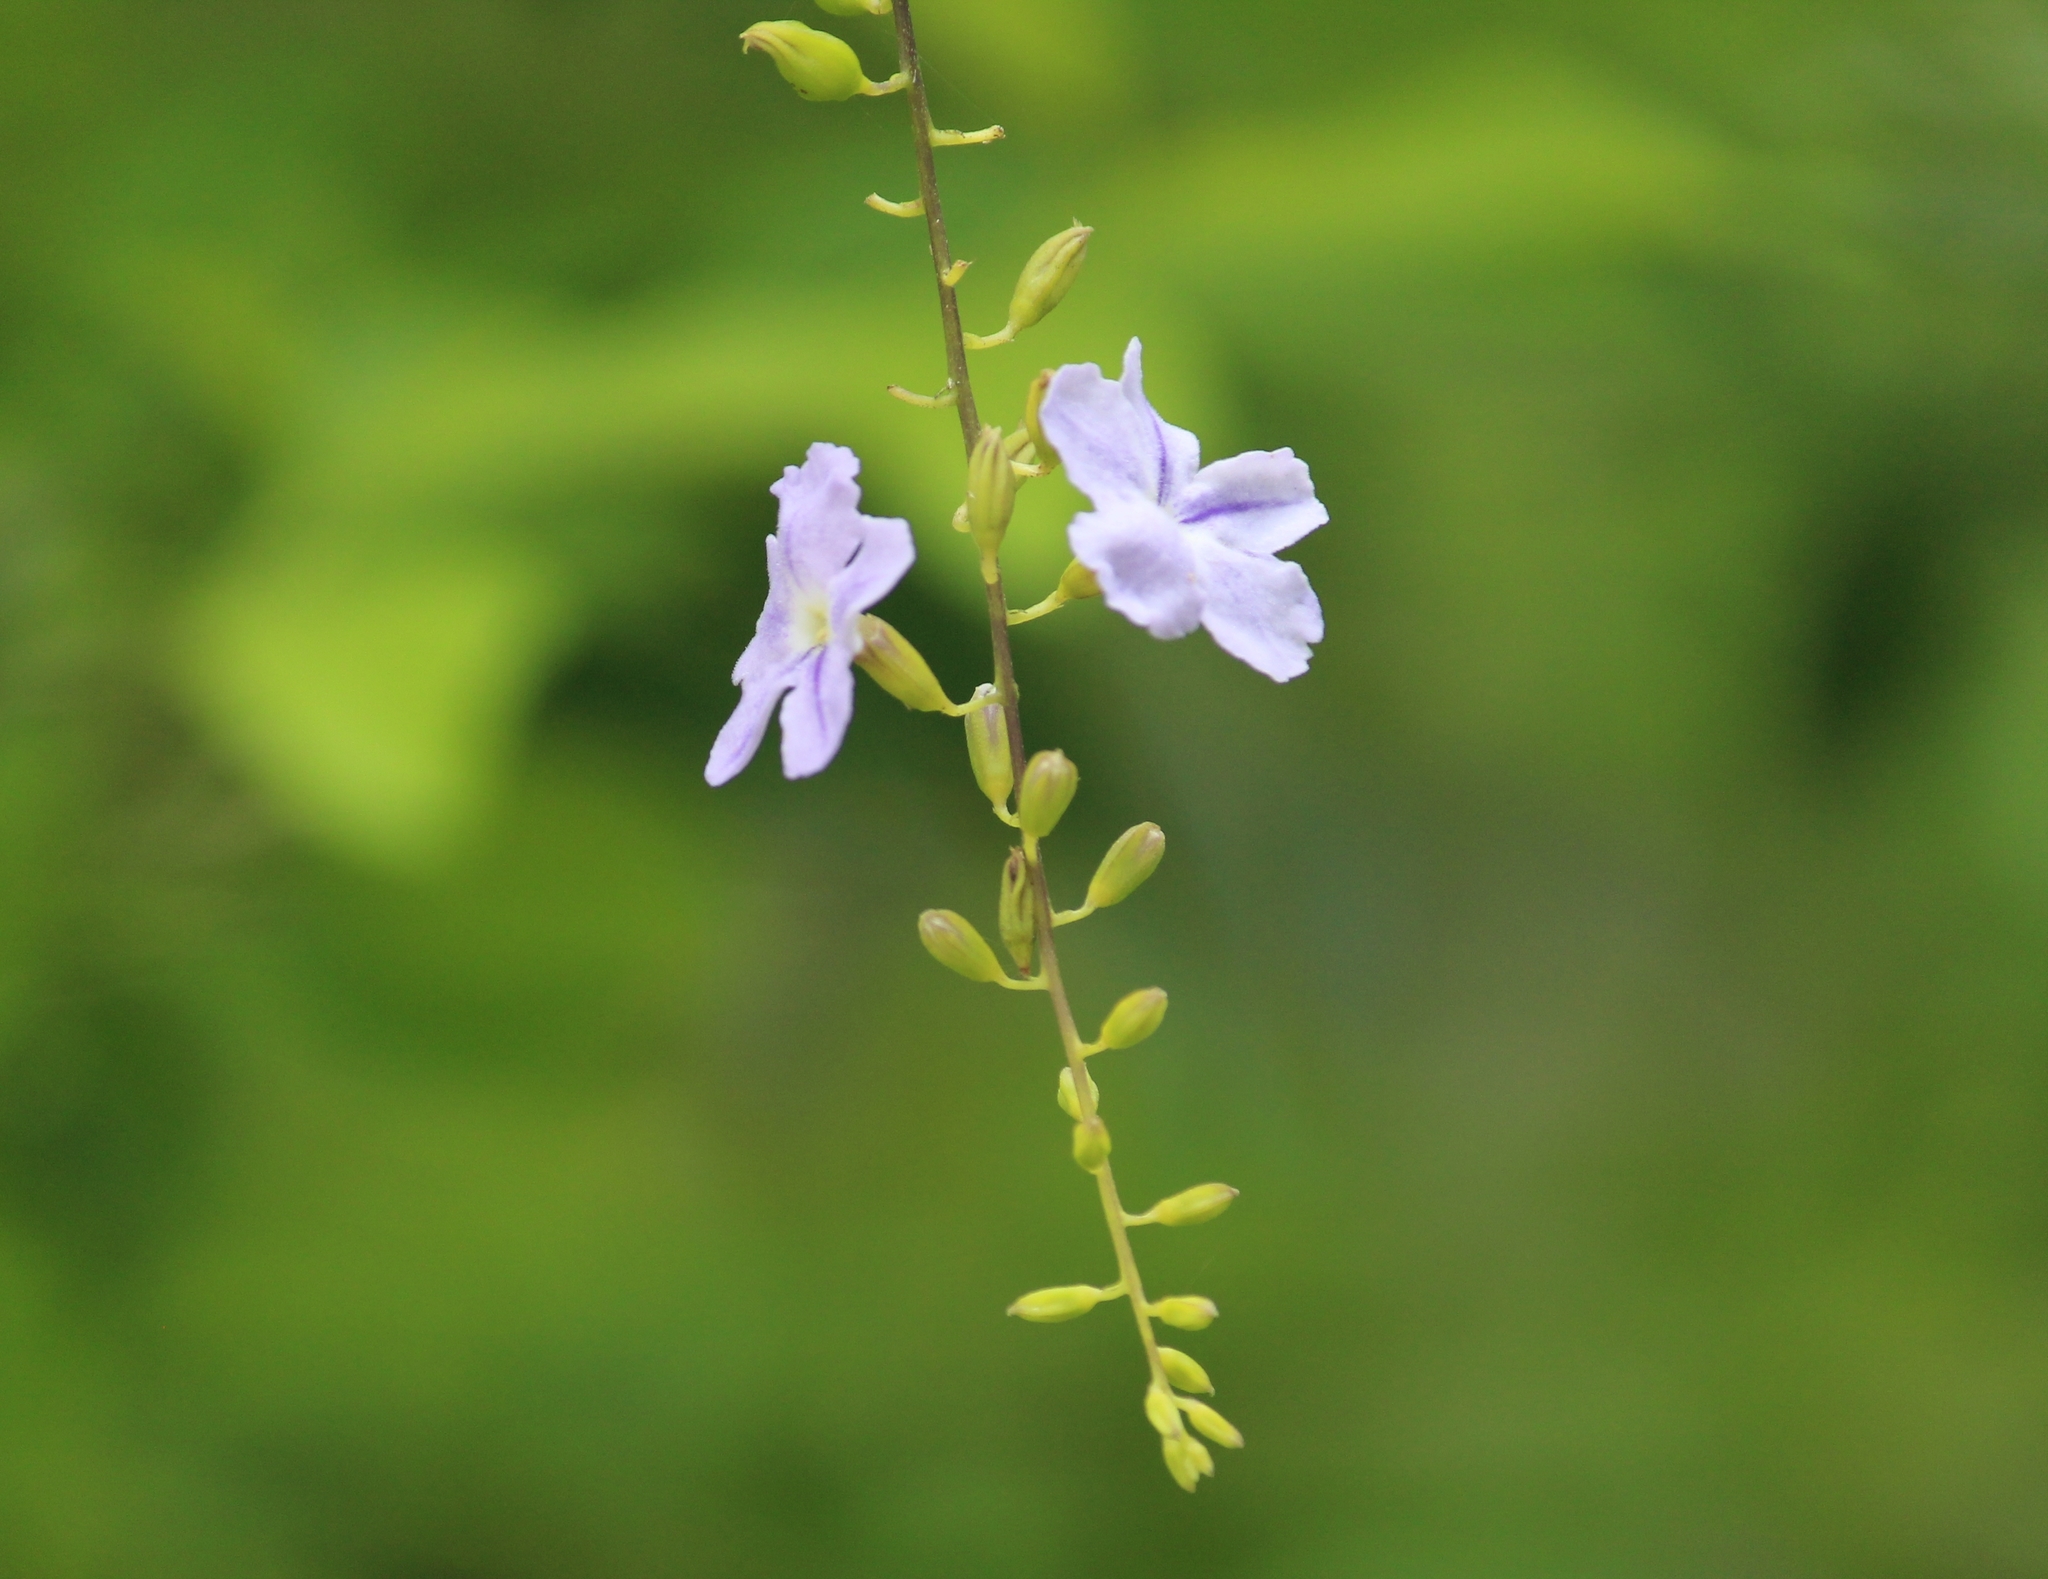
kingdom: Plantae
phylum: Tracheophyta
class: Magnoliopsida
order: Lamiales
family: Verbenaceae
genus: Duranta
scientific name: Duranta erecta
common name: Golden dewdrops
